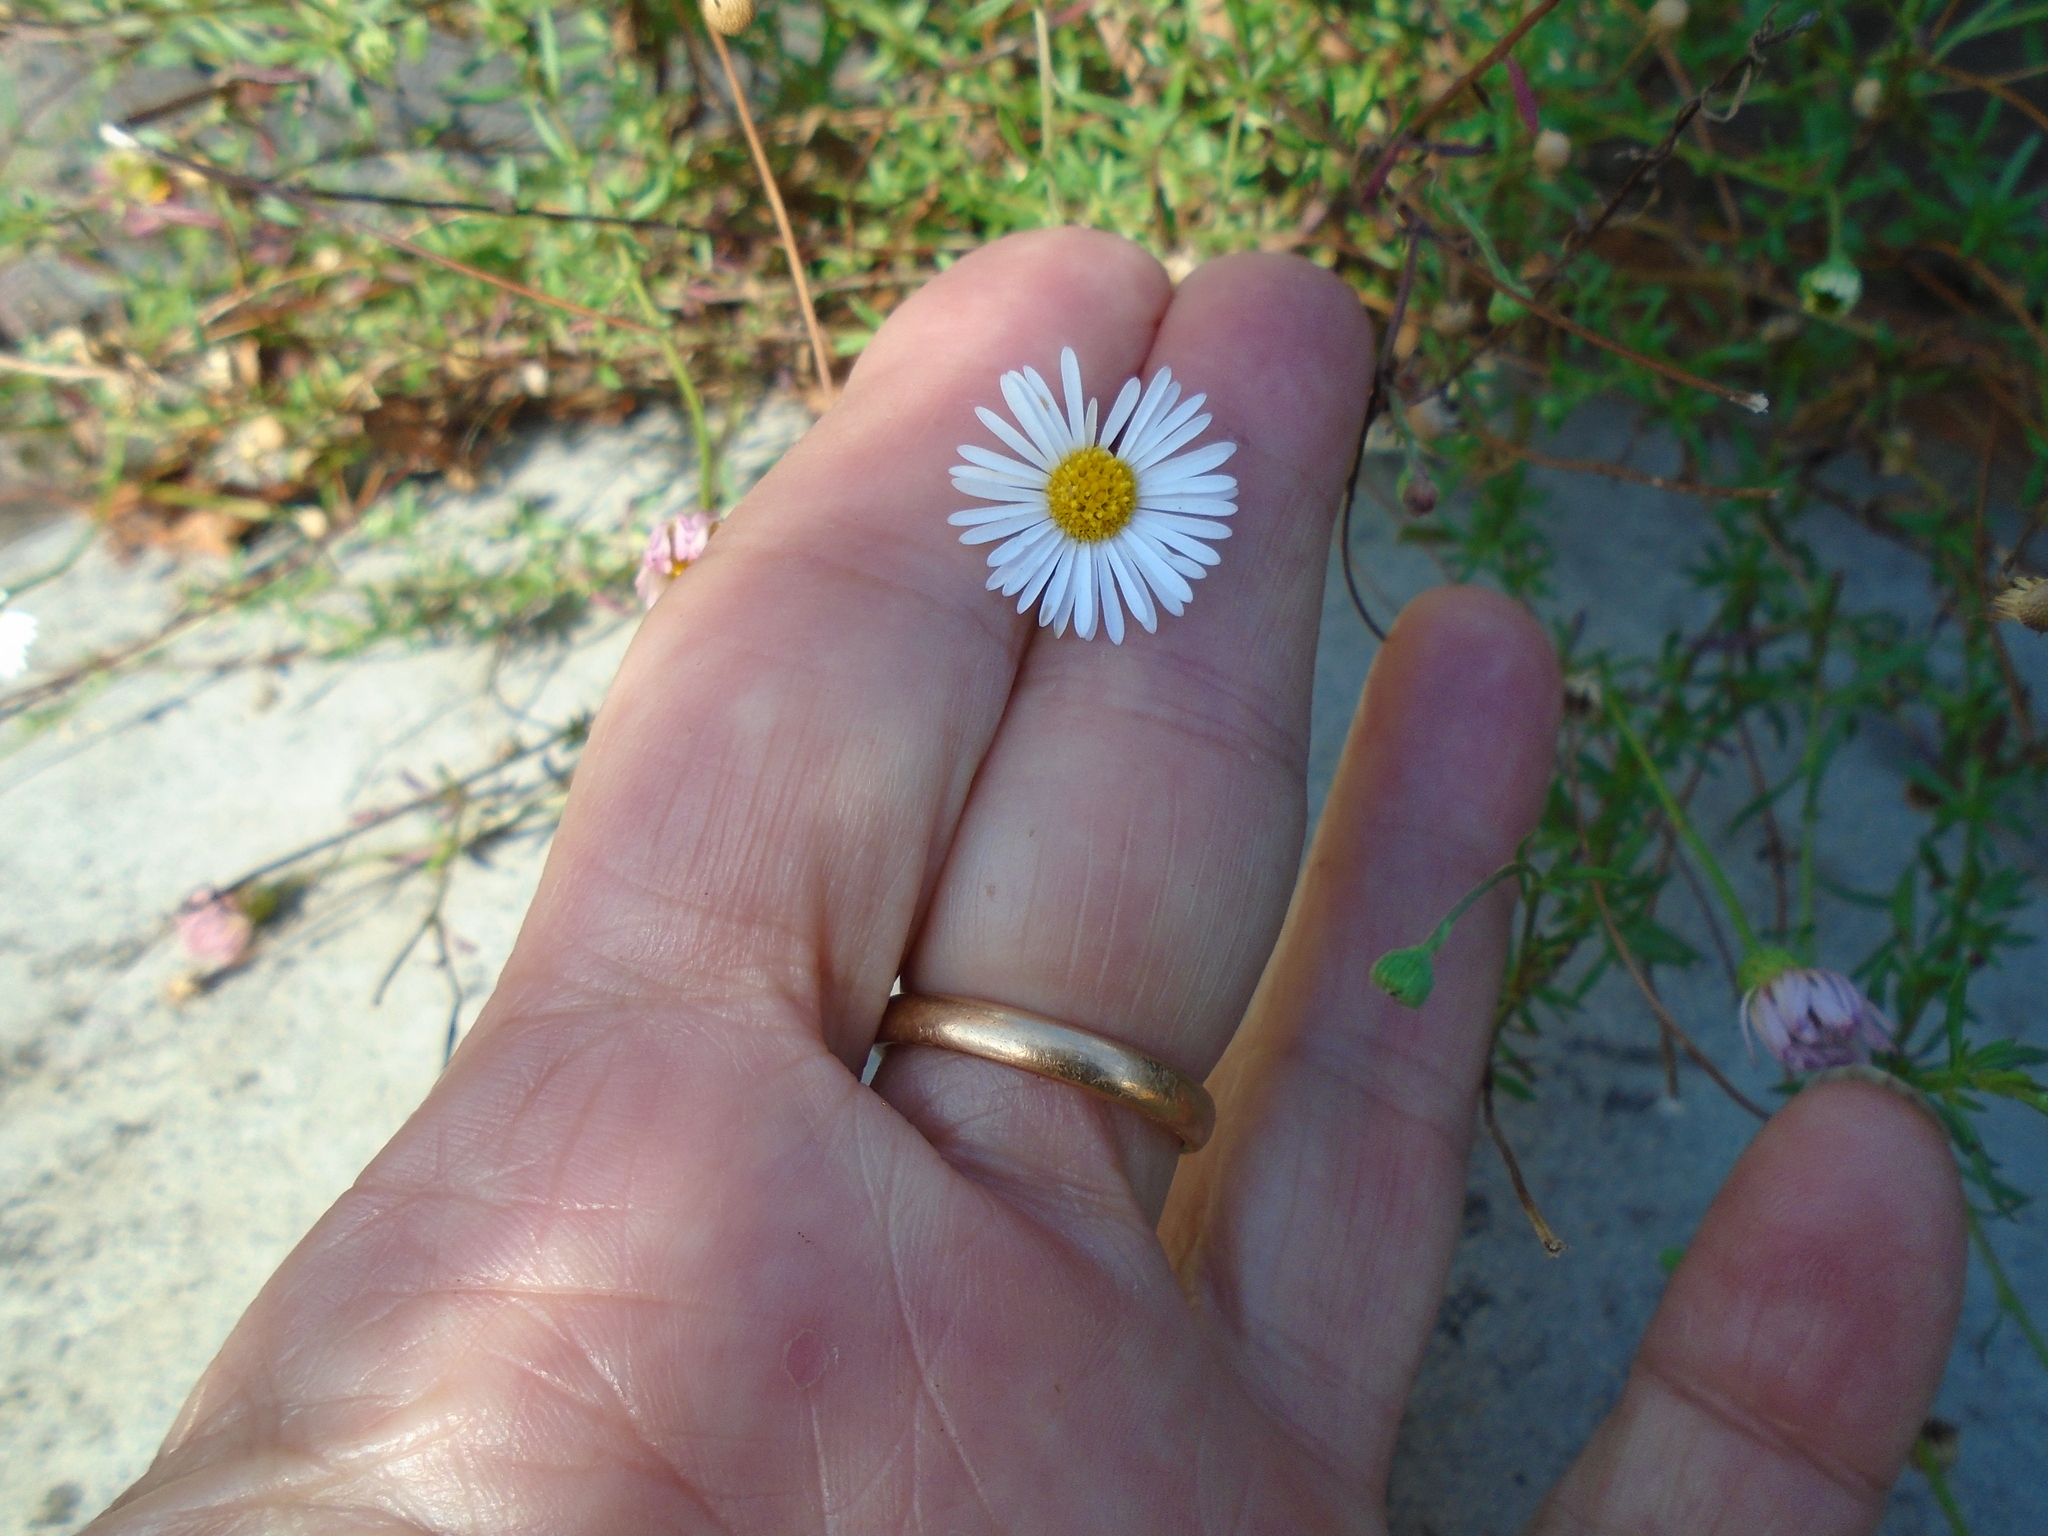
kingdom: Plantae
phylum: Tracheophyta
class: Magnoliopsida
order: Asterales
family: Asteraceae
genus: Erigeron
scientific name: Erigeron karvinskianus
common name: Mexican fleabane
